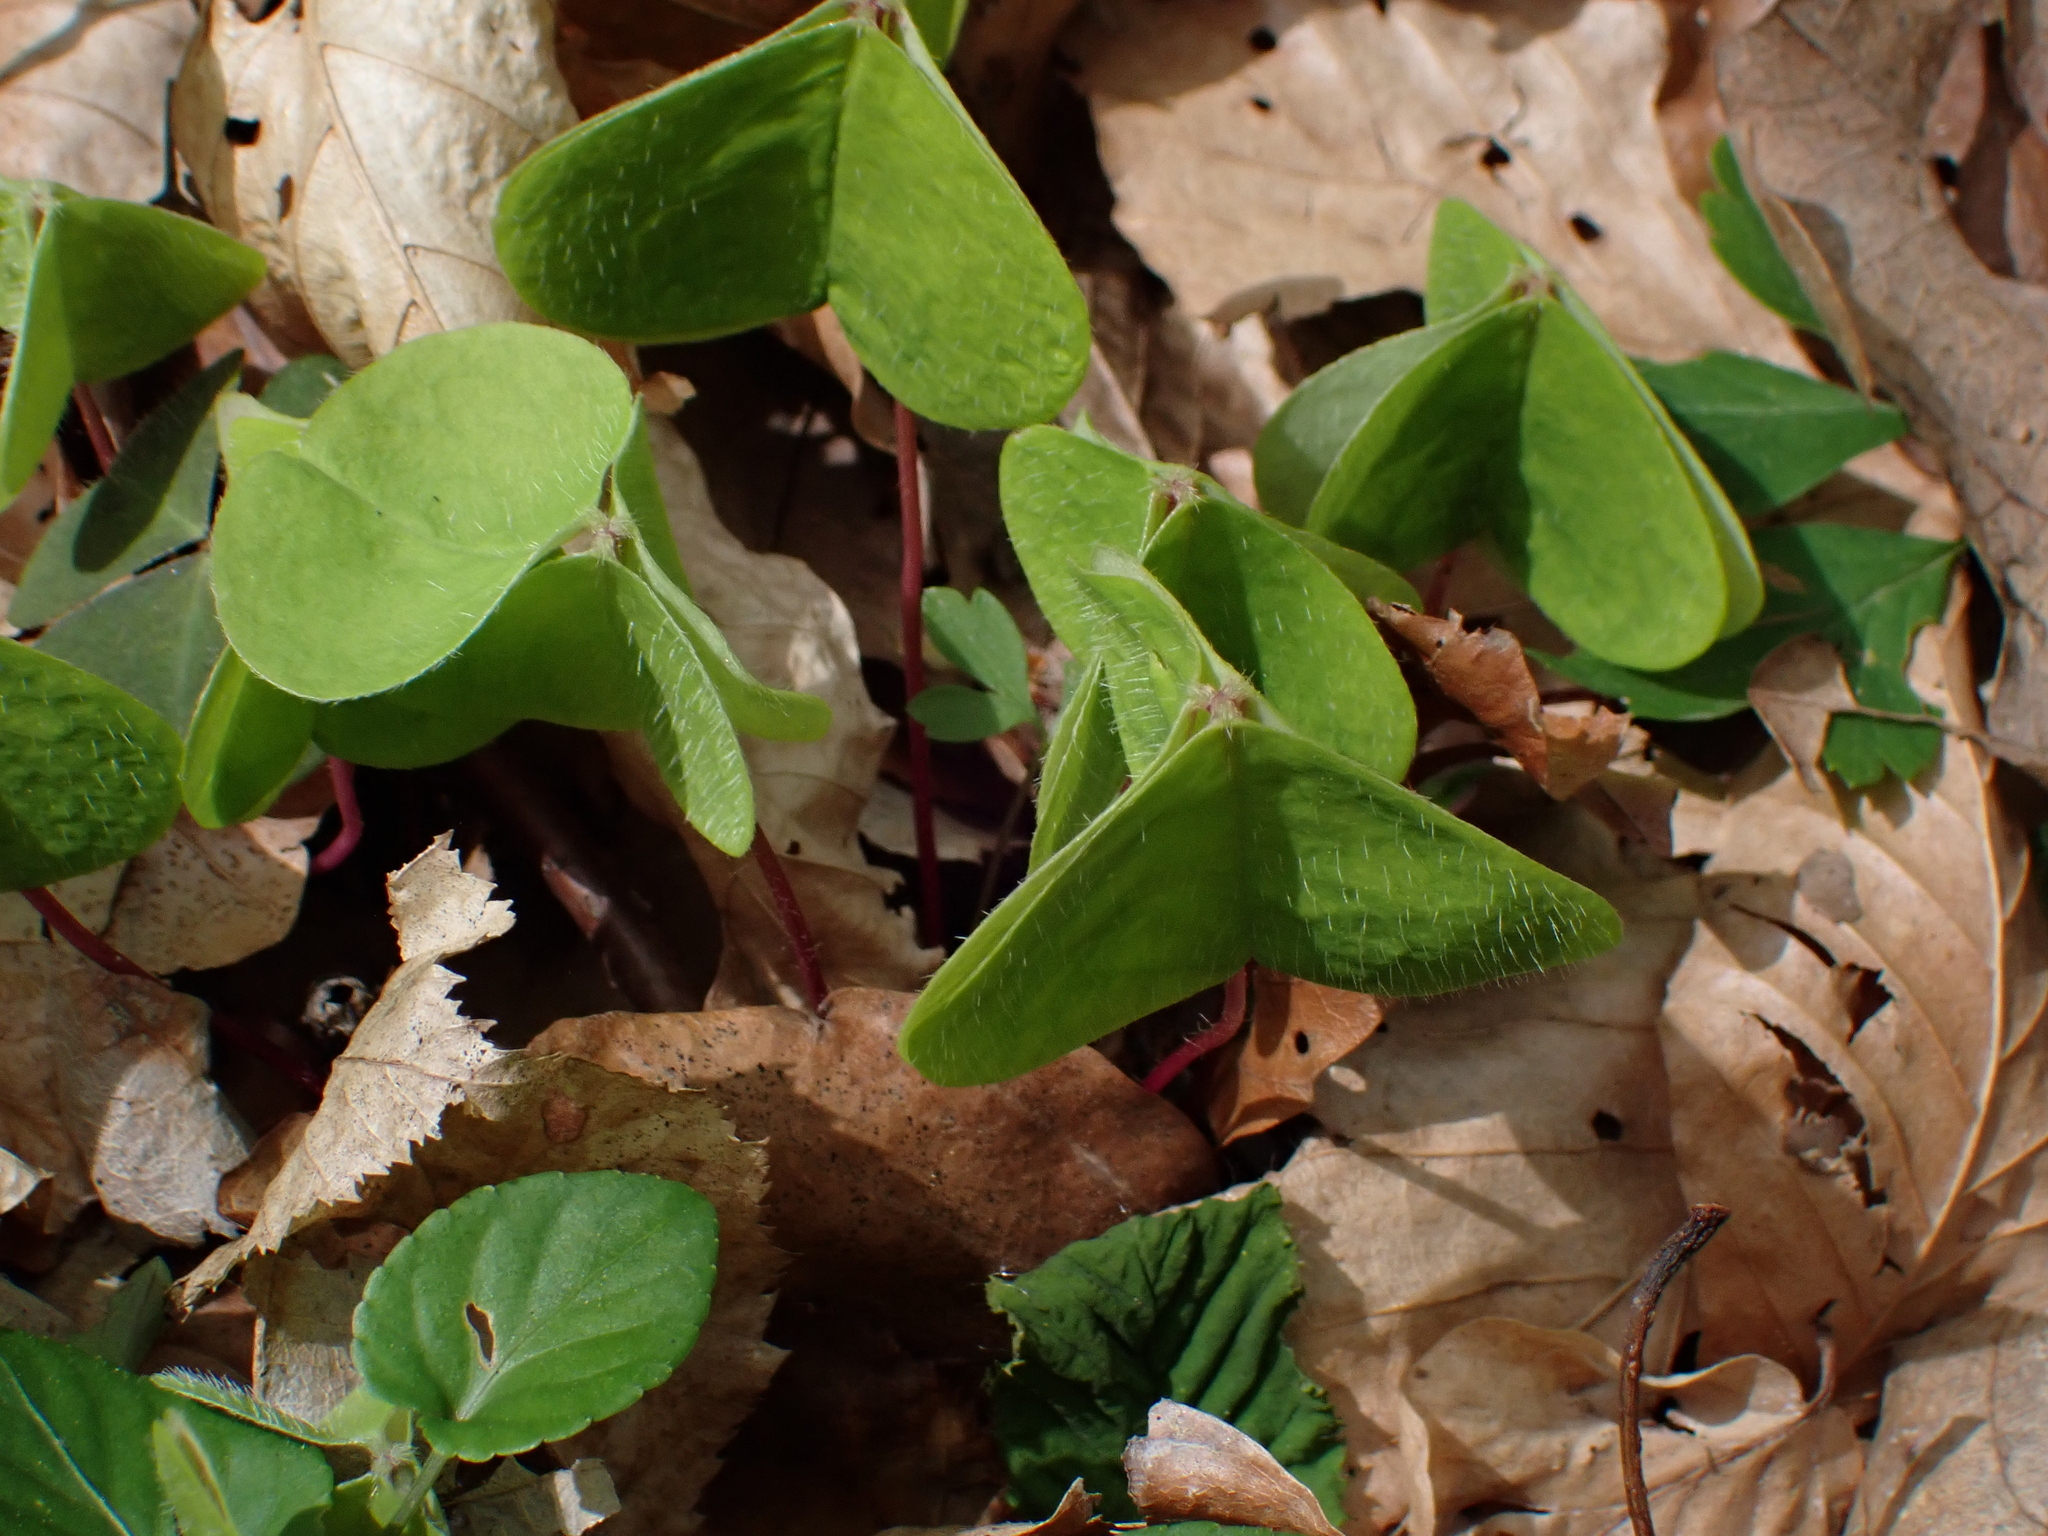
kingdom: Plantae
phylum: Tracheophyta
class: Magnoliopsida
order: Oxalidales
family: Oxalidaceae
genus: Oxalis
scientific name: Oxalis acetosella
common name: Wood-sorrel
